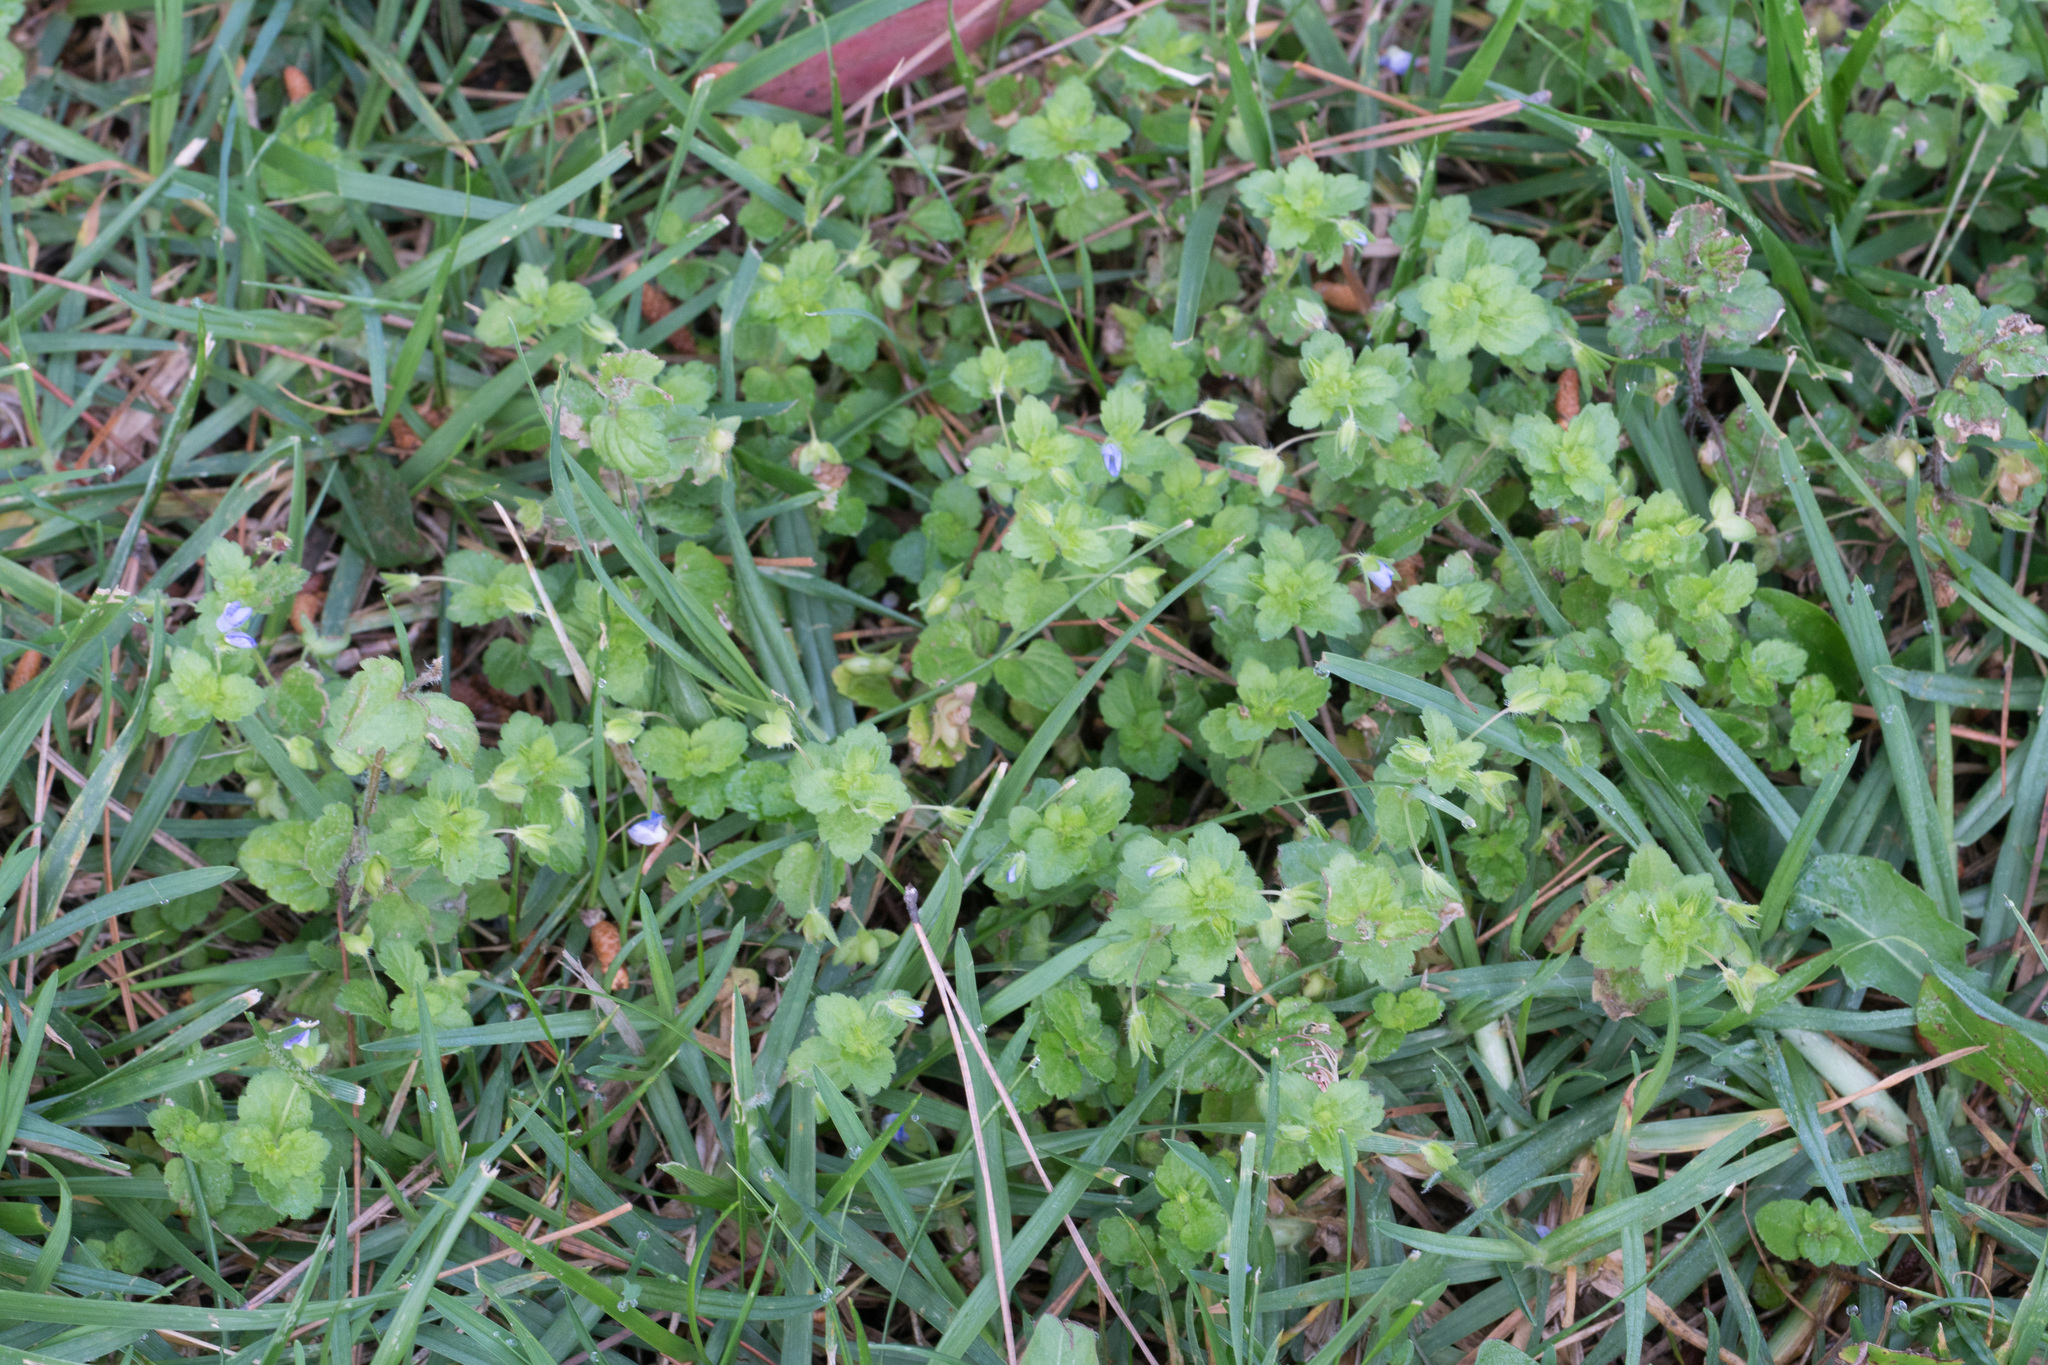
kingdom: Plantae
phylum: Tracheophyta
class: Magnoliopsida
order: Lamiales
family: Plantaginaceae
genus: Veronica
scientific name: Veronica persica
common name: Common field-speedwell
